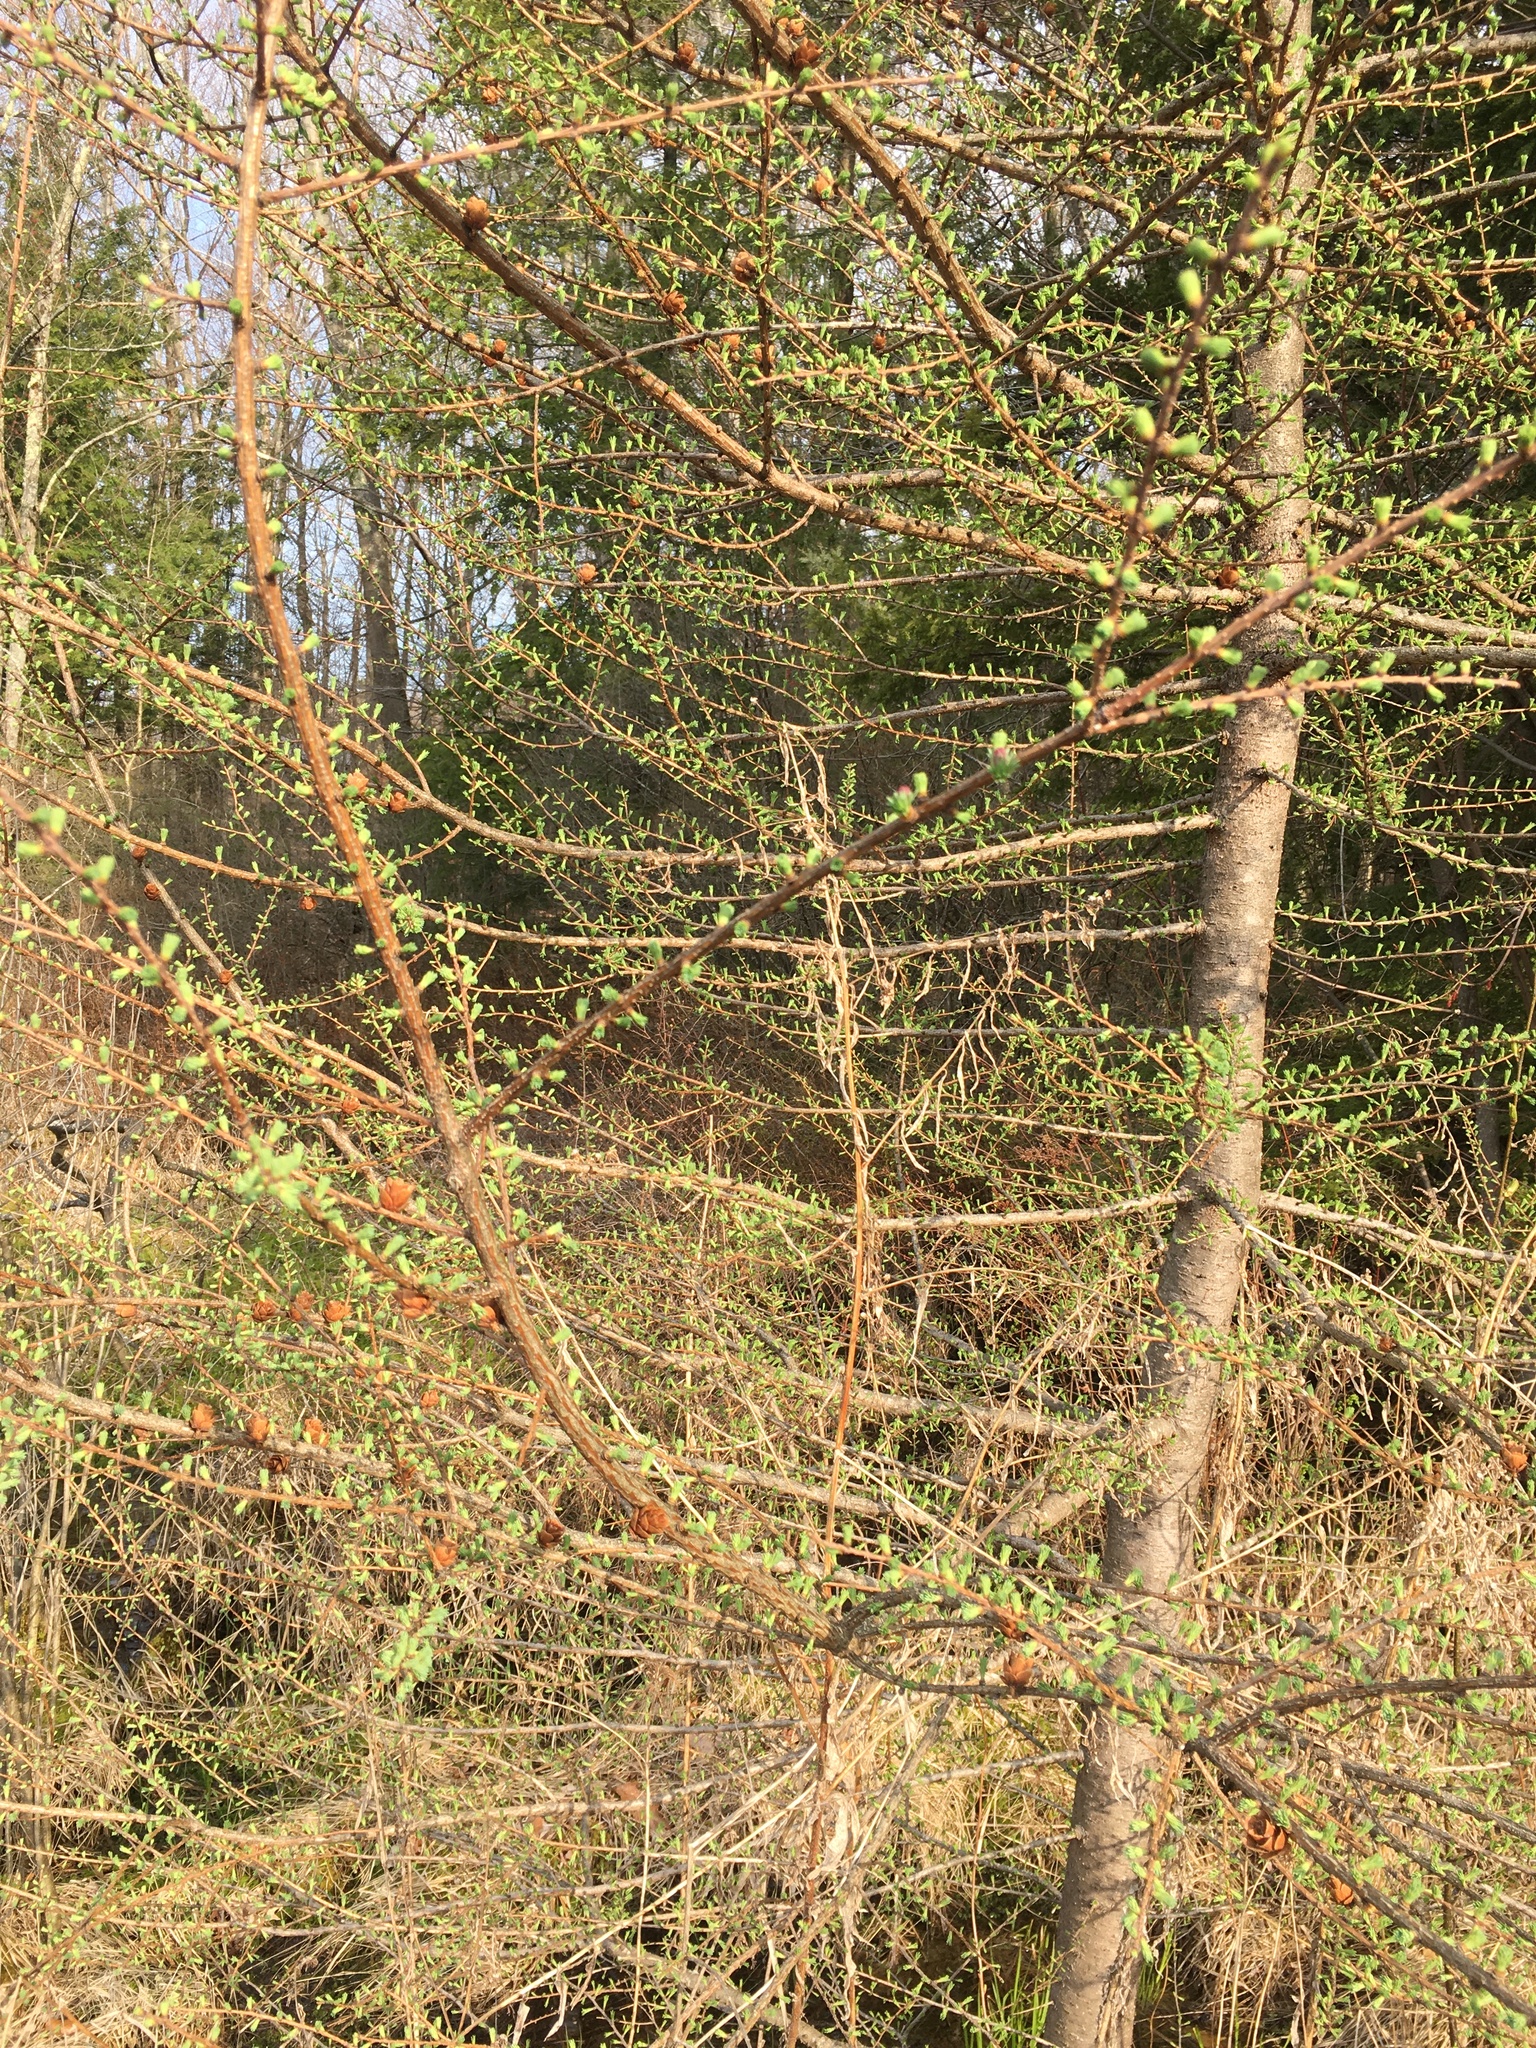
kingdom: Plantae
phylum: Tracheophyta
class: Pinopsida
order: Pinales
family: Pinaceae
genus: Larix
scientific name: Larix laricina
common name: American larch
